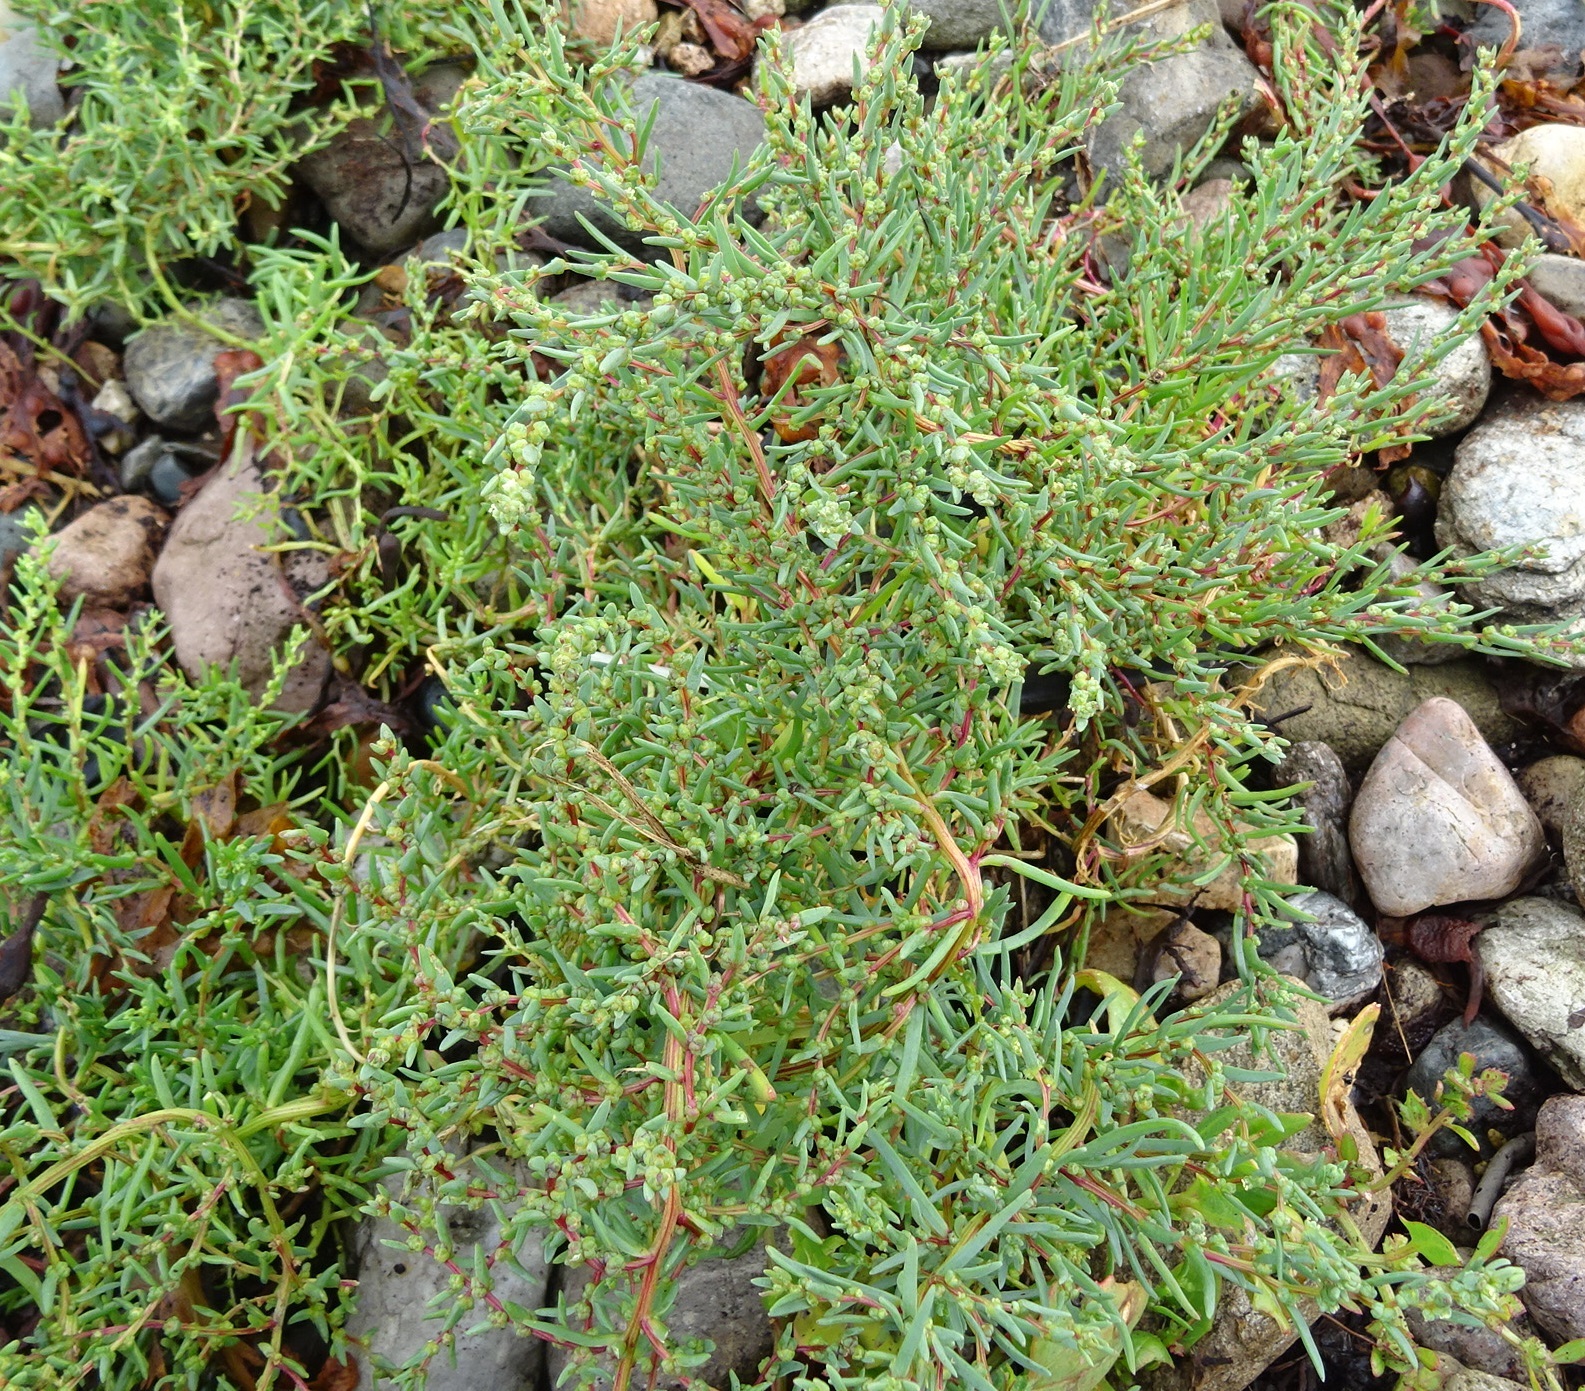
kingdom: Plantae
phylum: Tracheophyta
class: Magnoliopsida
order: Caryophyllales
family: Amaranthaceae
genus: Suaeda
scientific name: Suaeda maritima
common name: Annual sea-blite
